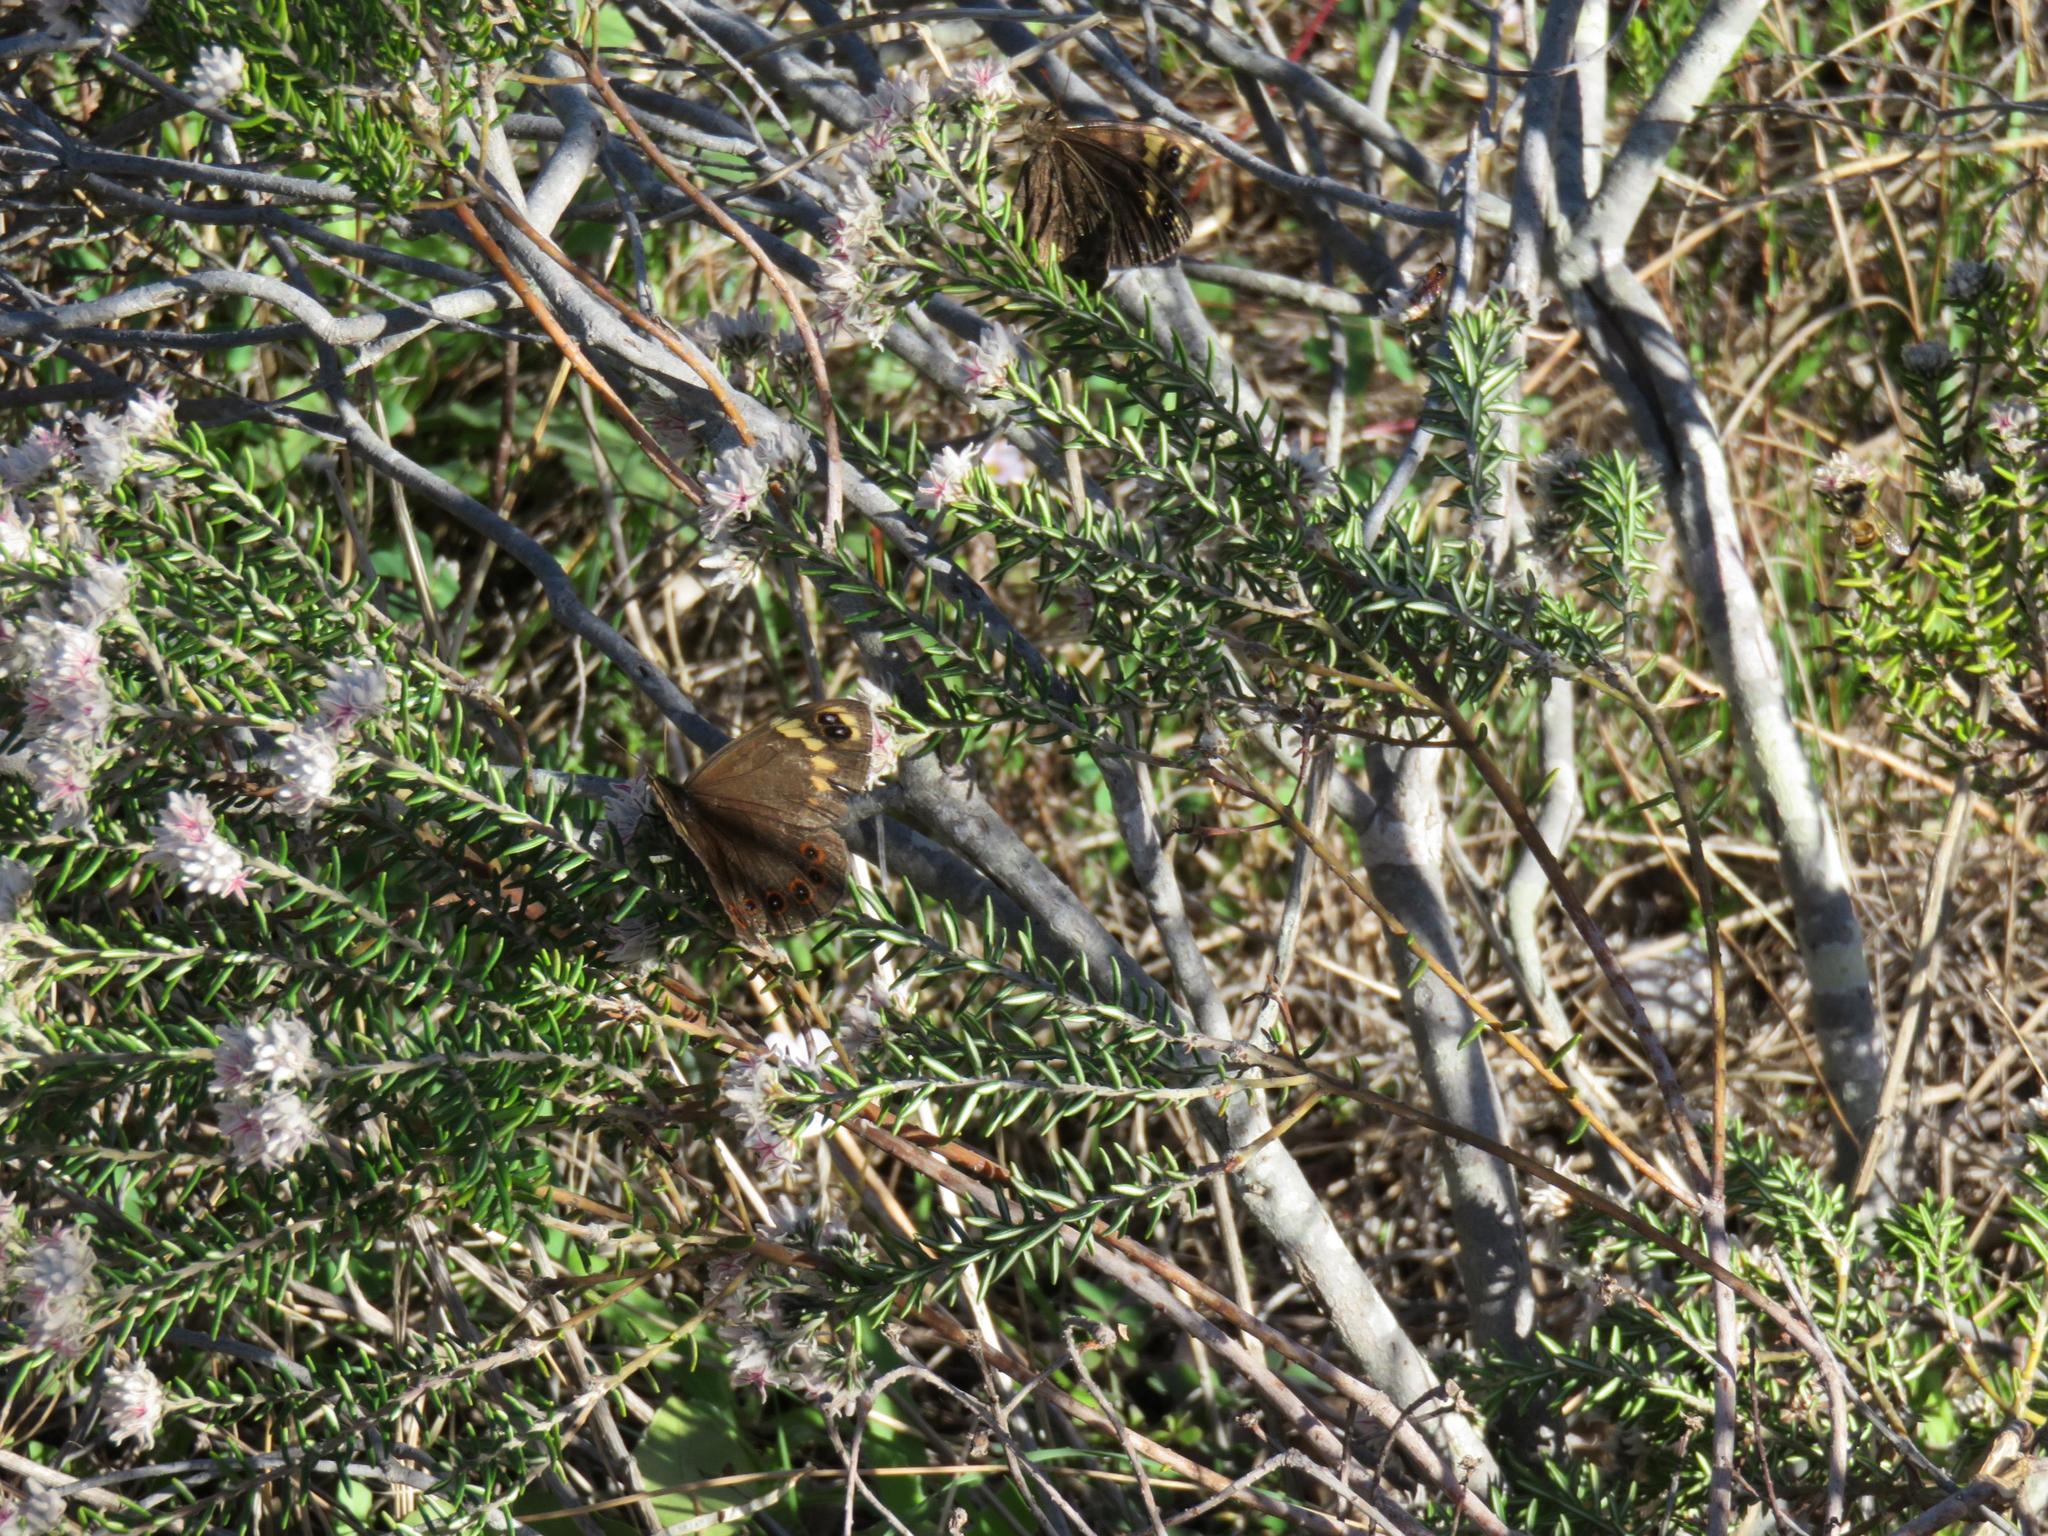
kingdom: Animalia
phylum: Arthropoda
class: Insecta
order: Lepidoptera
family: Nymphalidae
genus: Dira
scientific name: Dira clytus
